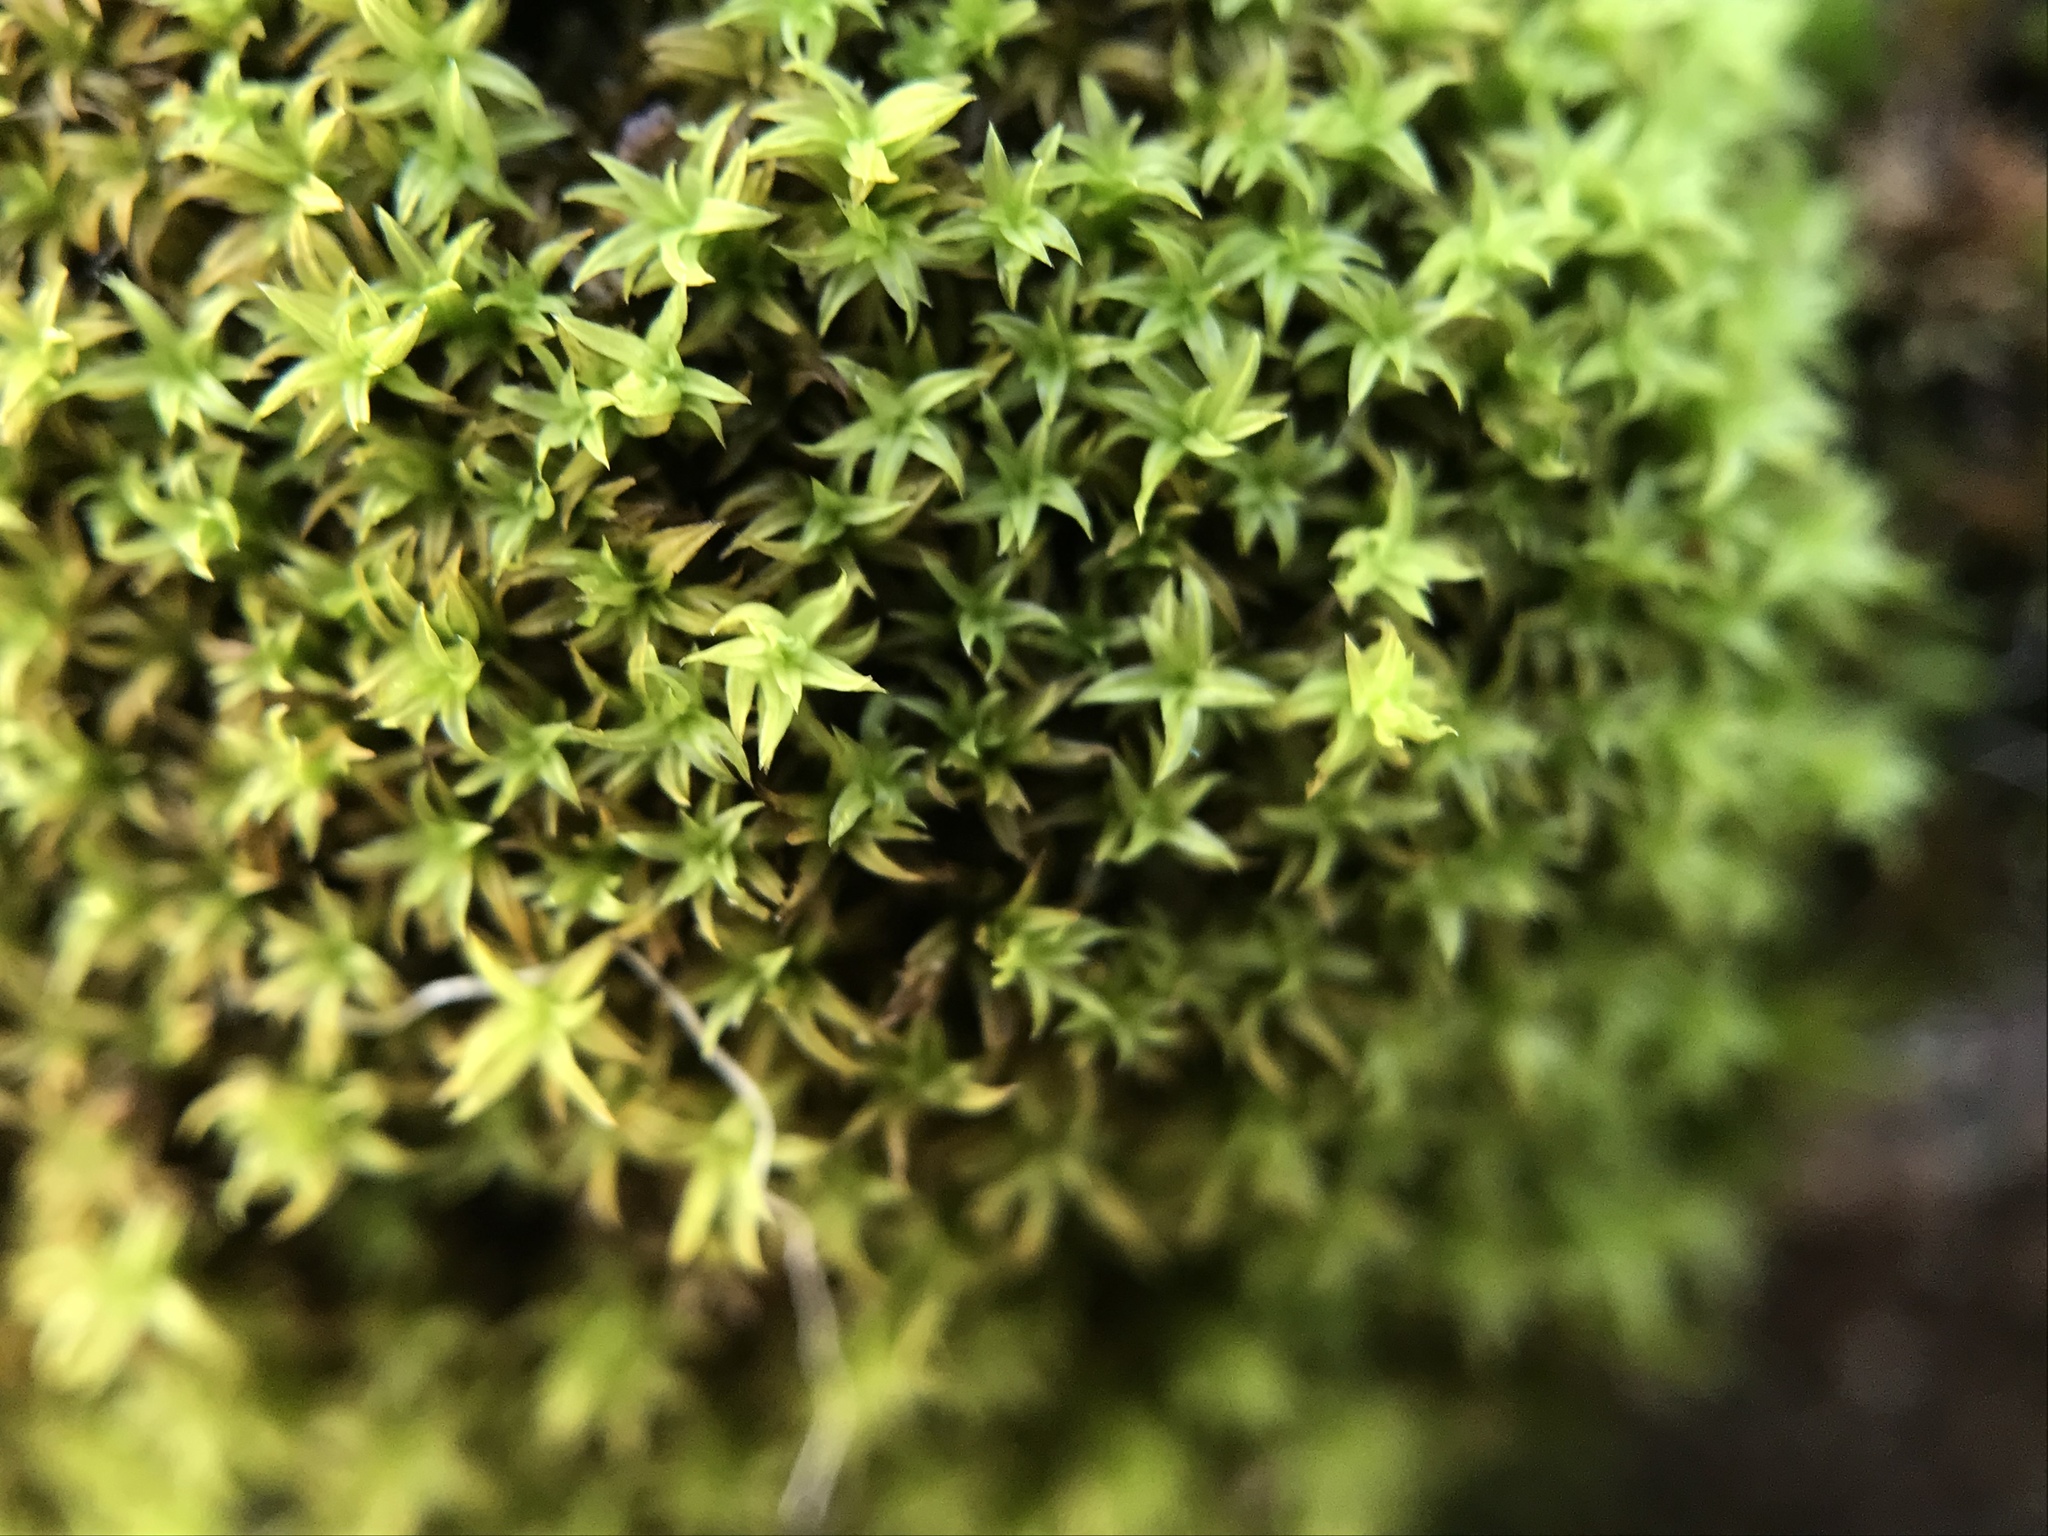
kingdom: Plantae
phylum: Bryophyta
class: Bryopsida
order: Orthotrichales
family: Orthotrichaceae
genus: Zygodon
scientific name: Zygodon viridissimus
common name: Green yoke moss
